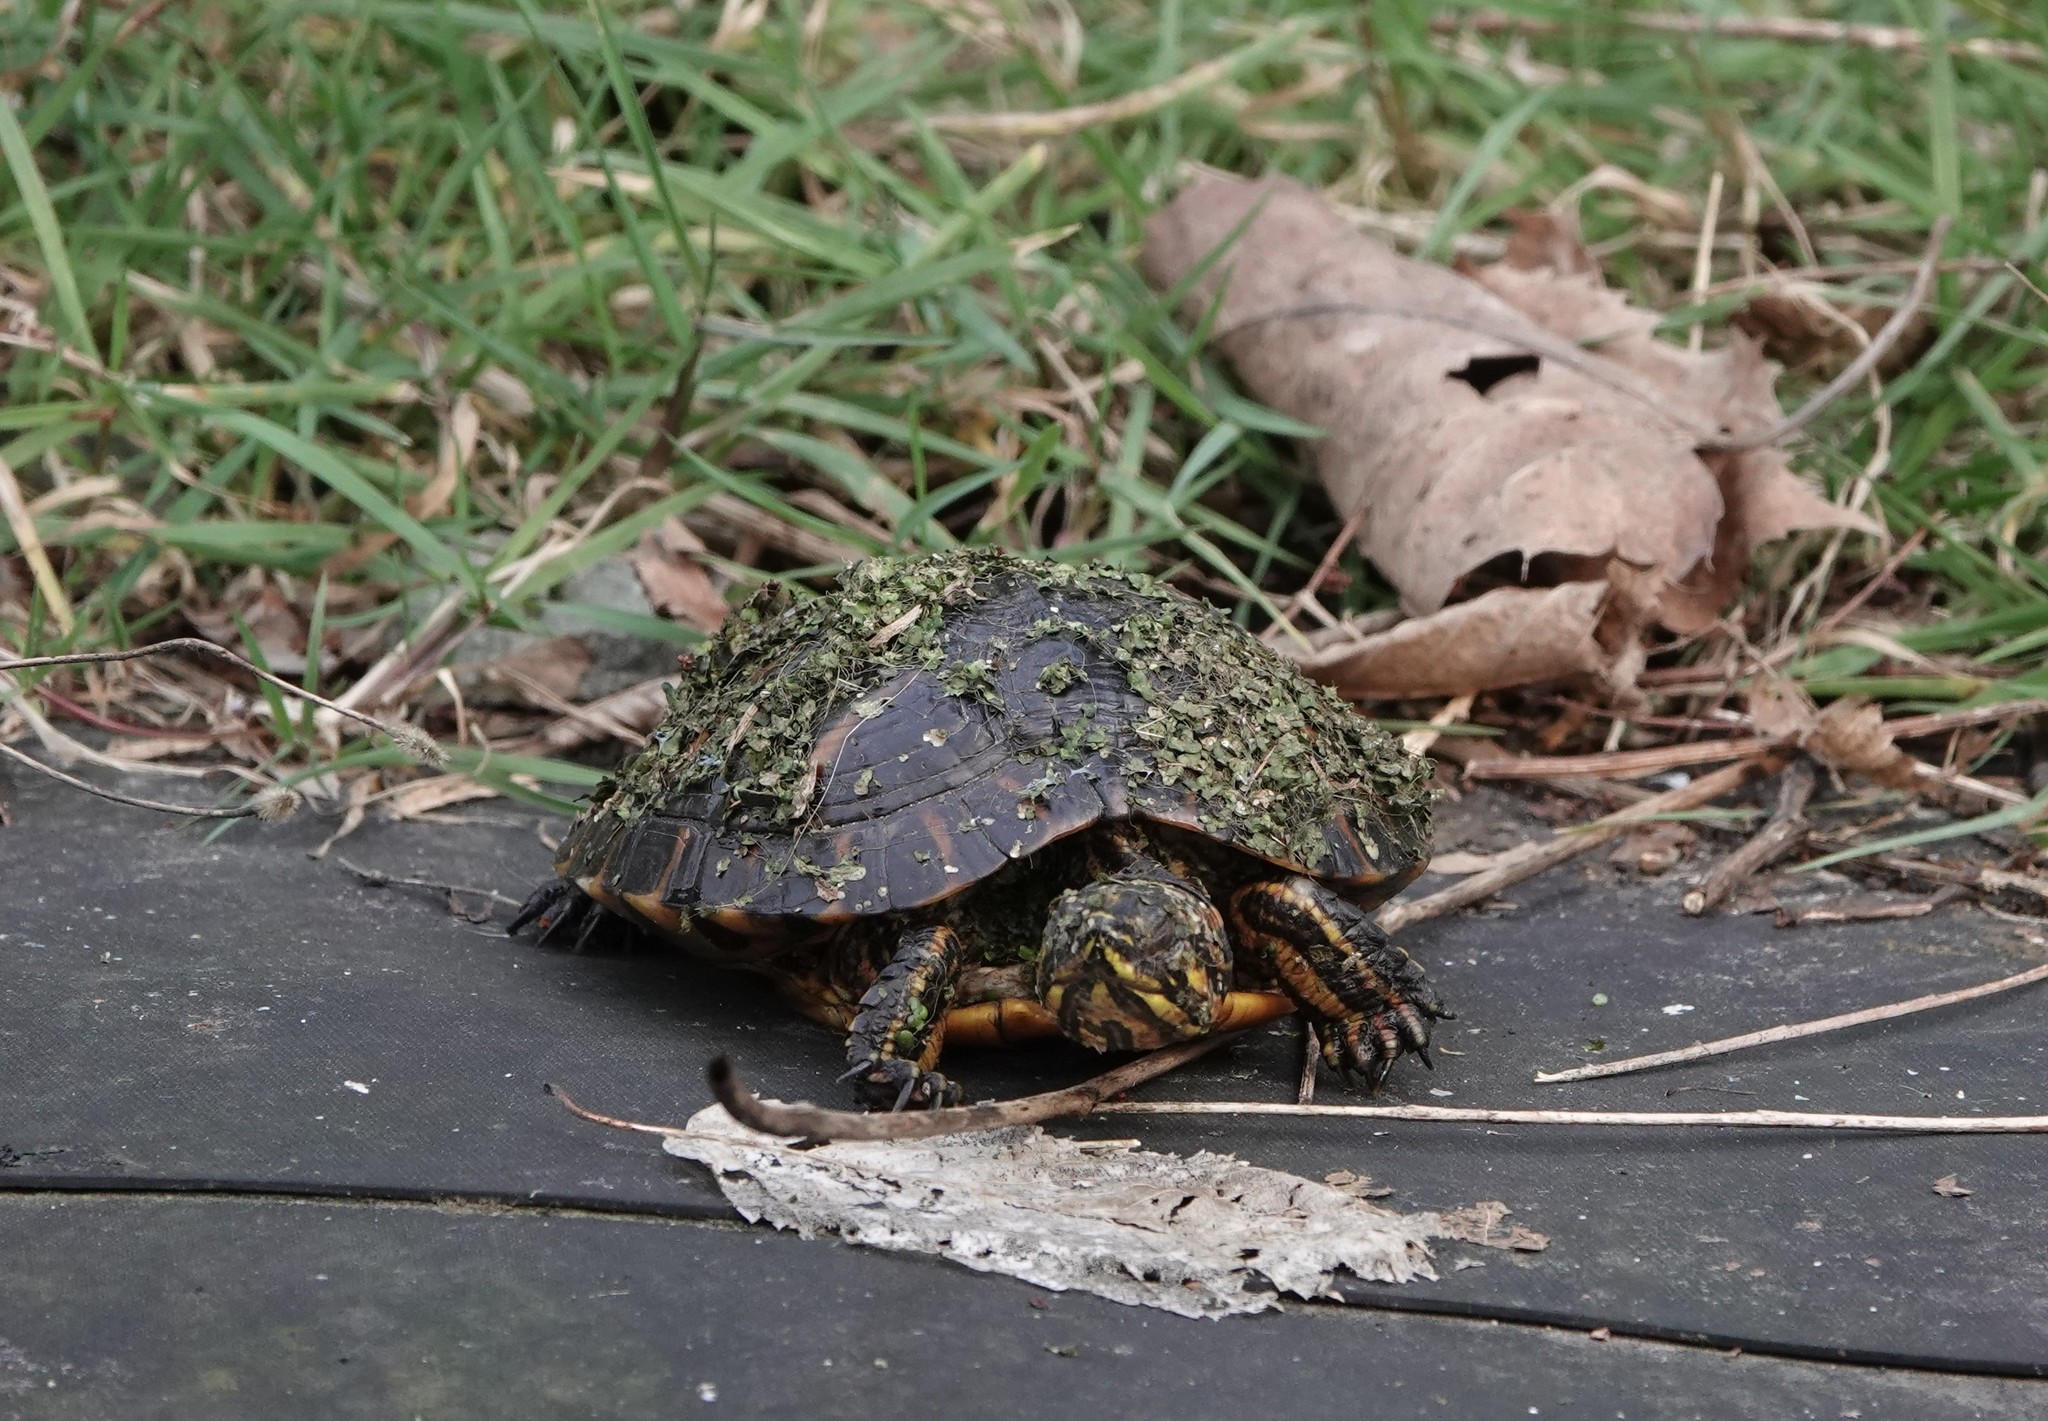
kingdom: Animalia
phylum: Chordata
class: Testudines
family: Emydidae
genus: Trachemys
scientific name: Trachemys scripta
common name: Slider
